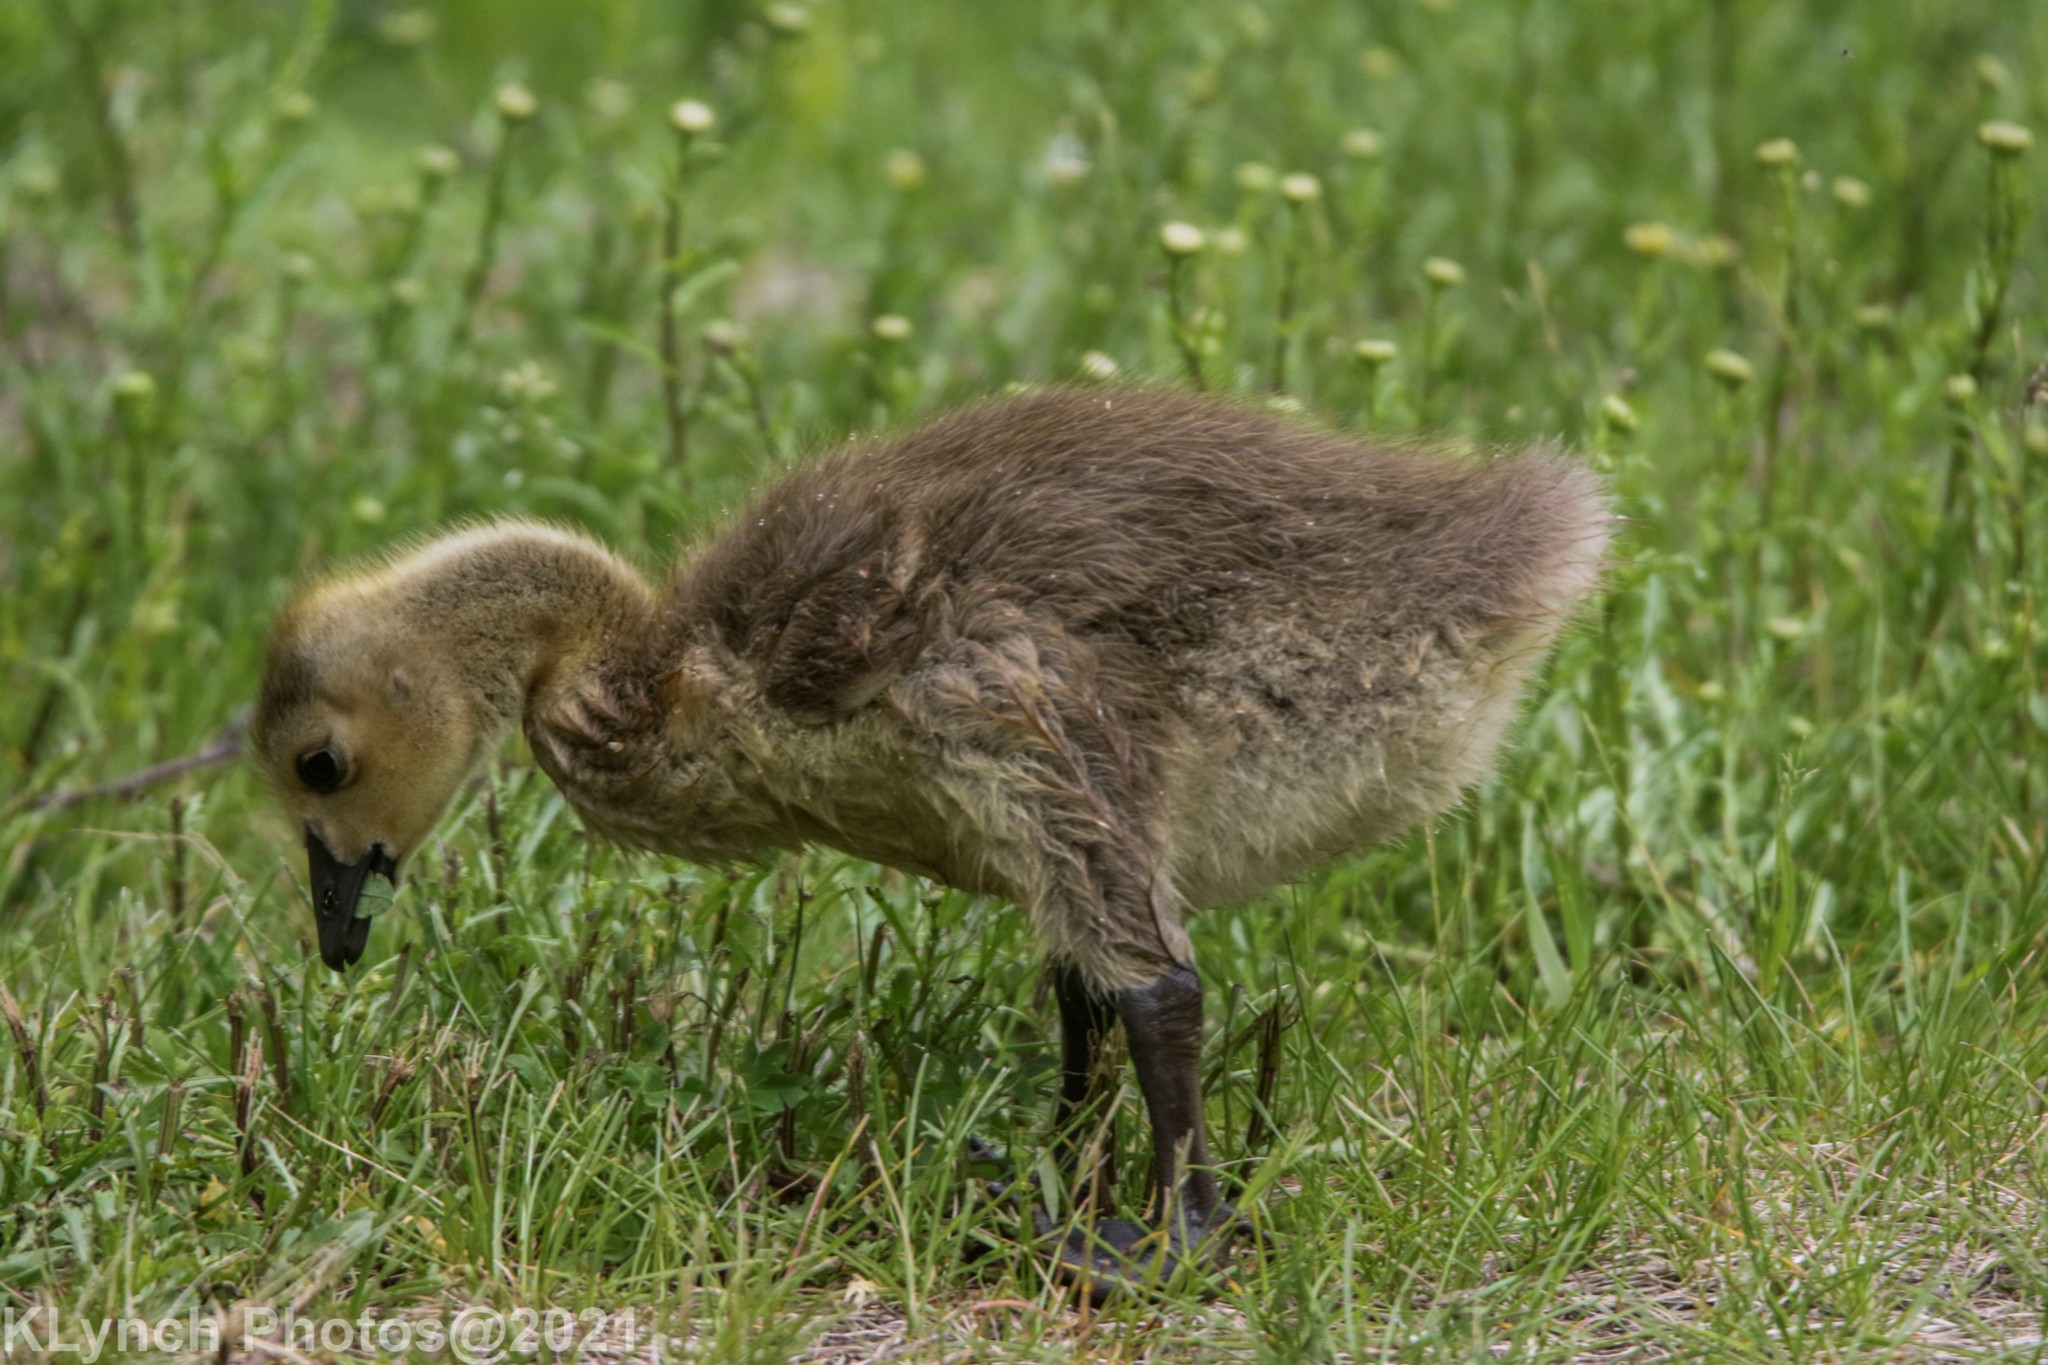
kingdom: Animalia
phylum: Chordata
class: Aves
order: Anseriformes
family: Anatidae
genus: Branta
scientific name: Branta canadensis
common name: Canada goose
